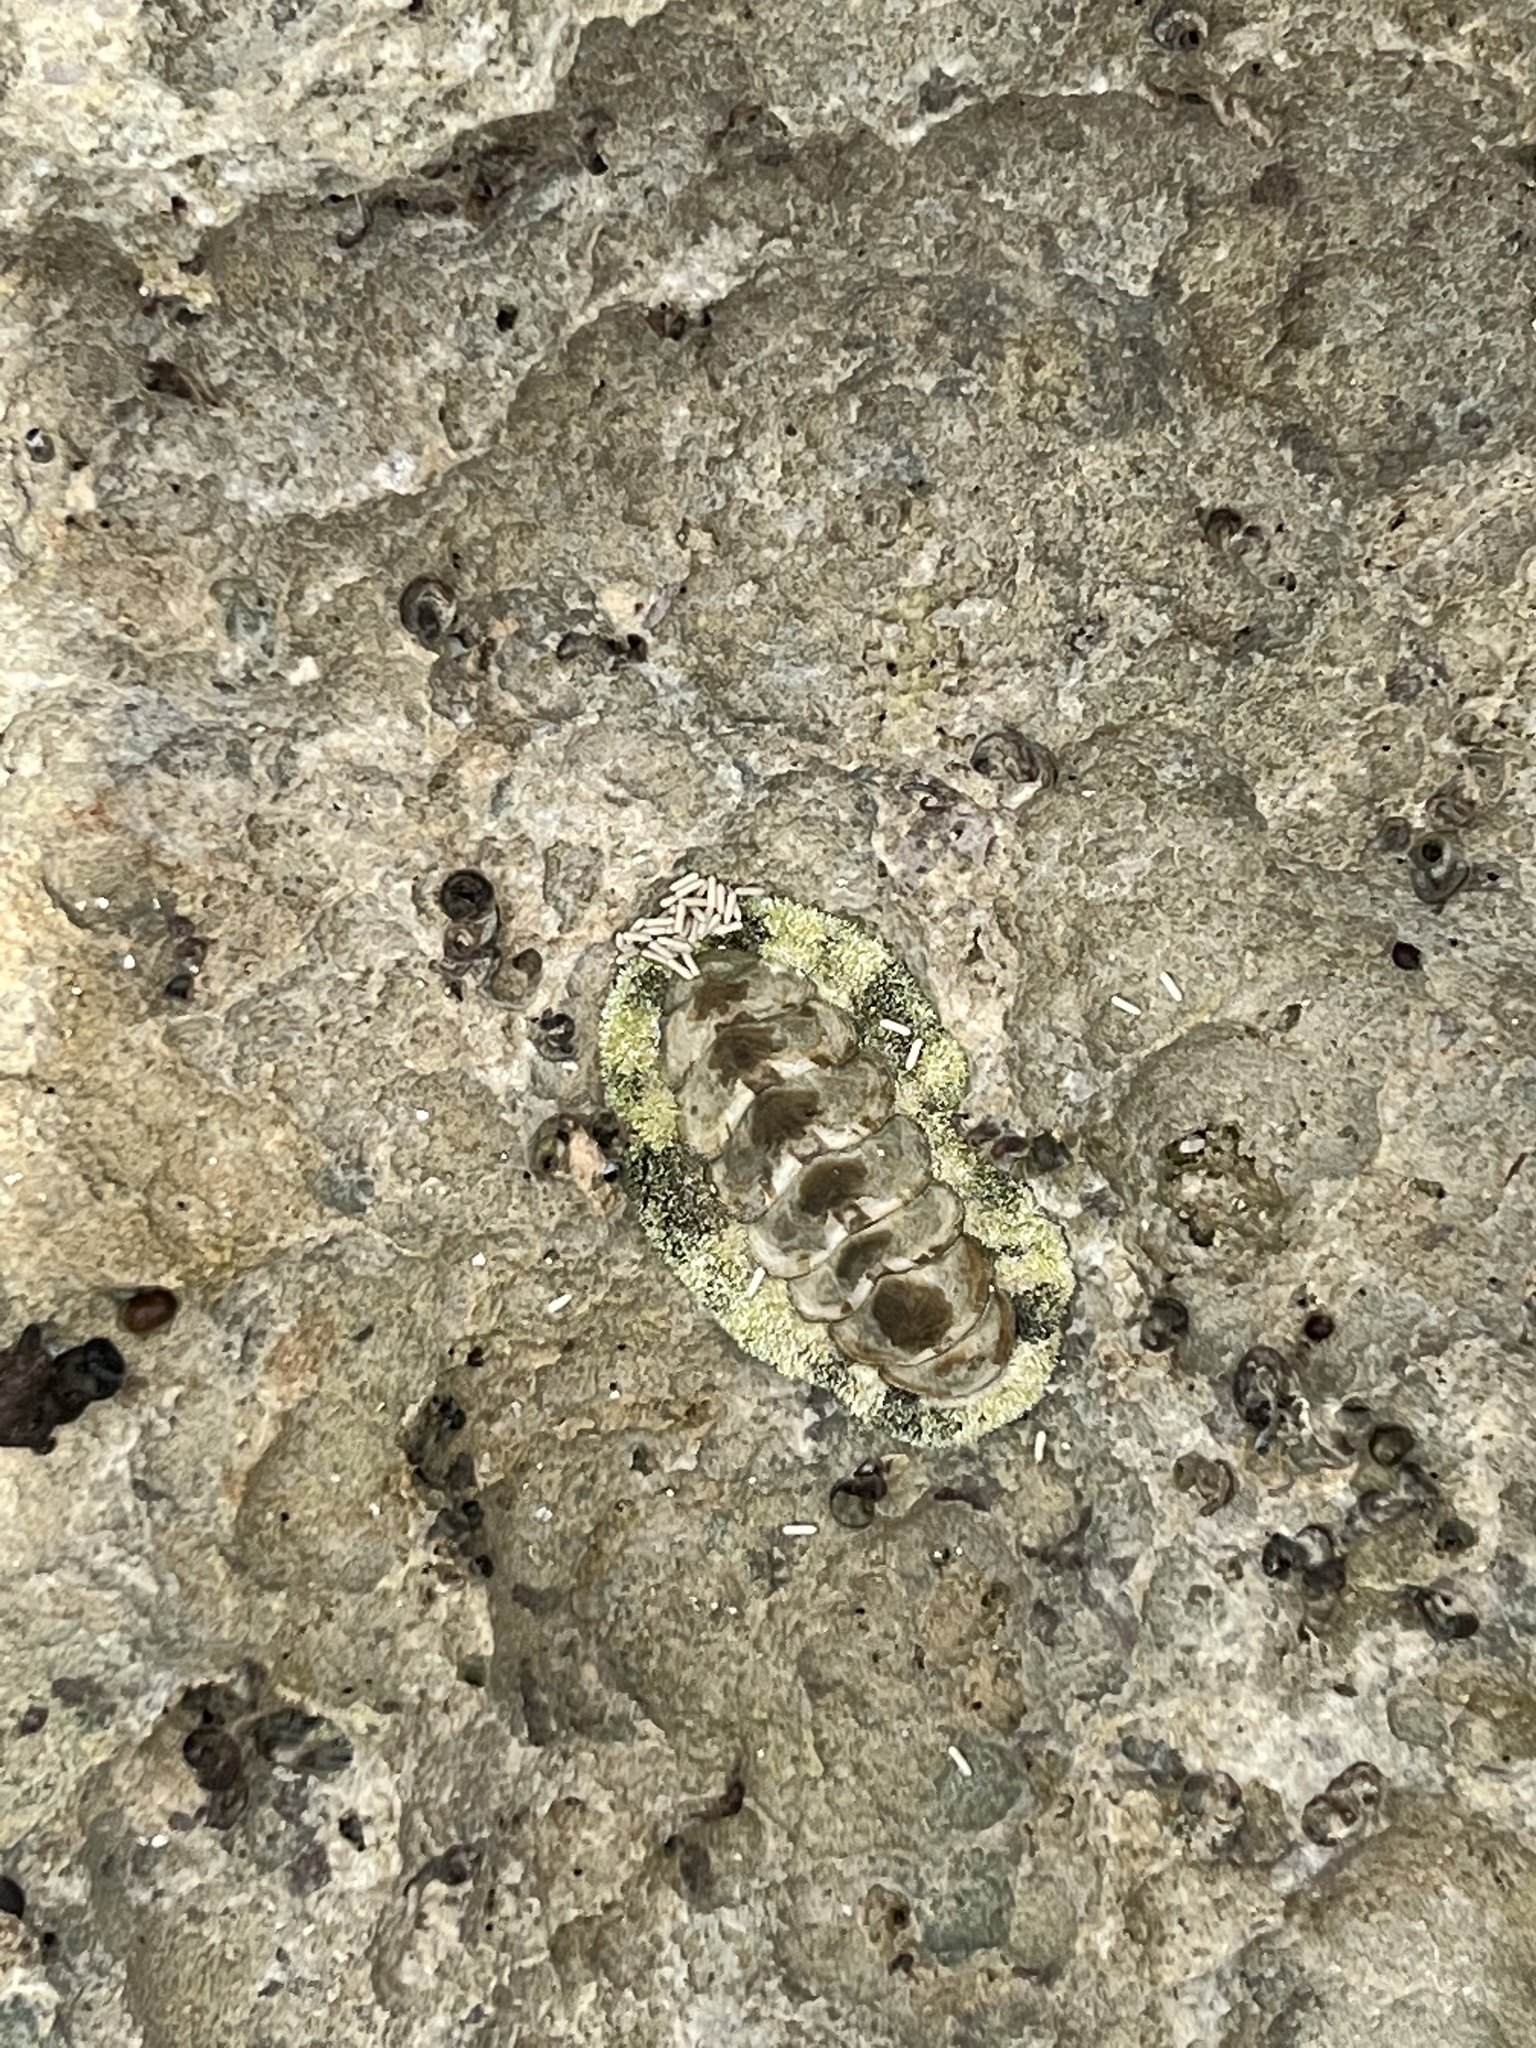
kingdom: Animalia
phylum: Mollusca
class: Polyplacophora
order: Chitonida
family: Chitonidae
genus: Acanthopleura
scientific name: Acanthopleura granulata
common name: West indian fuzzy chiton
